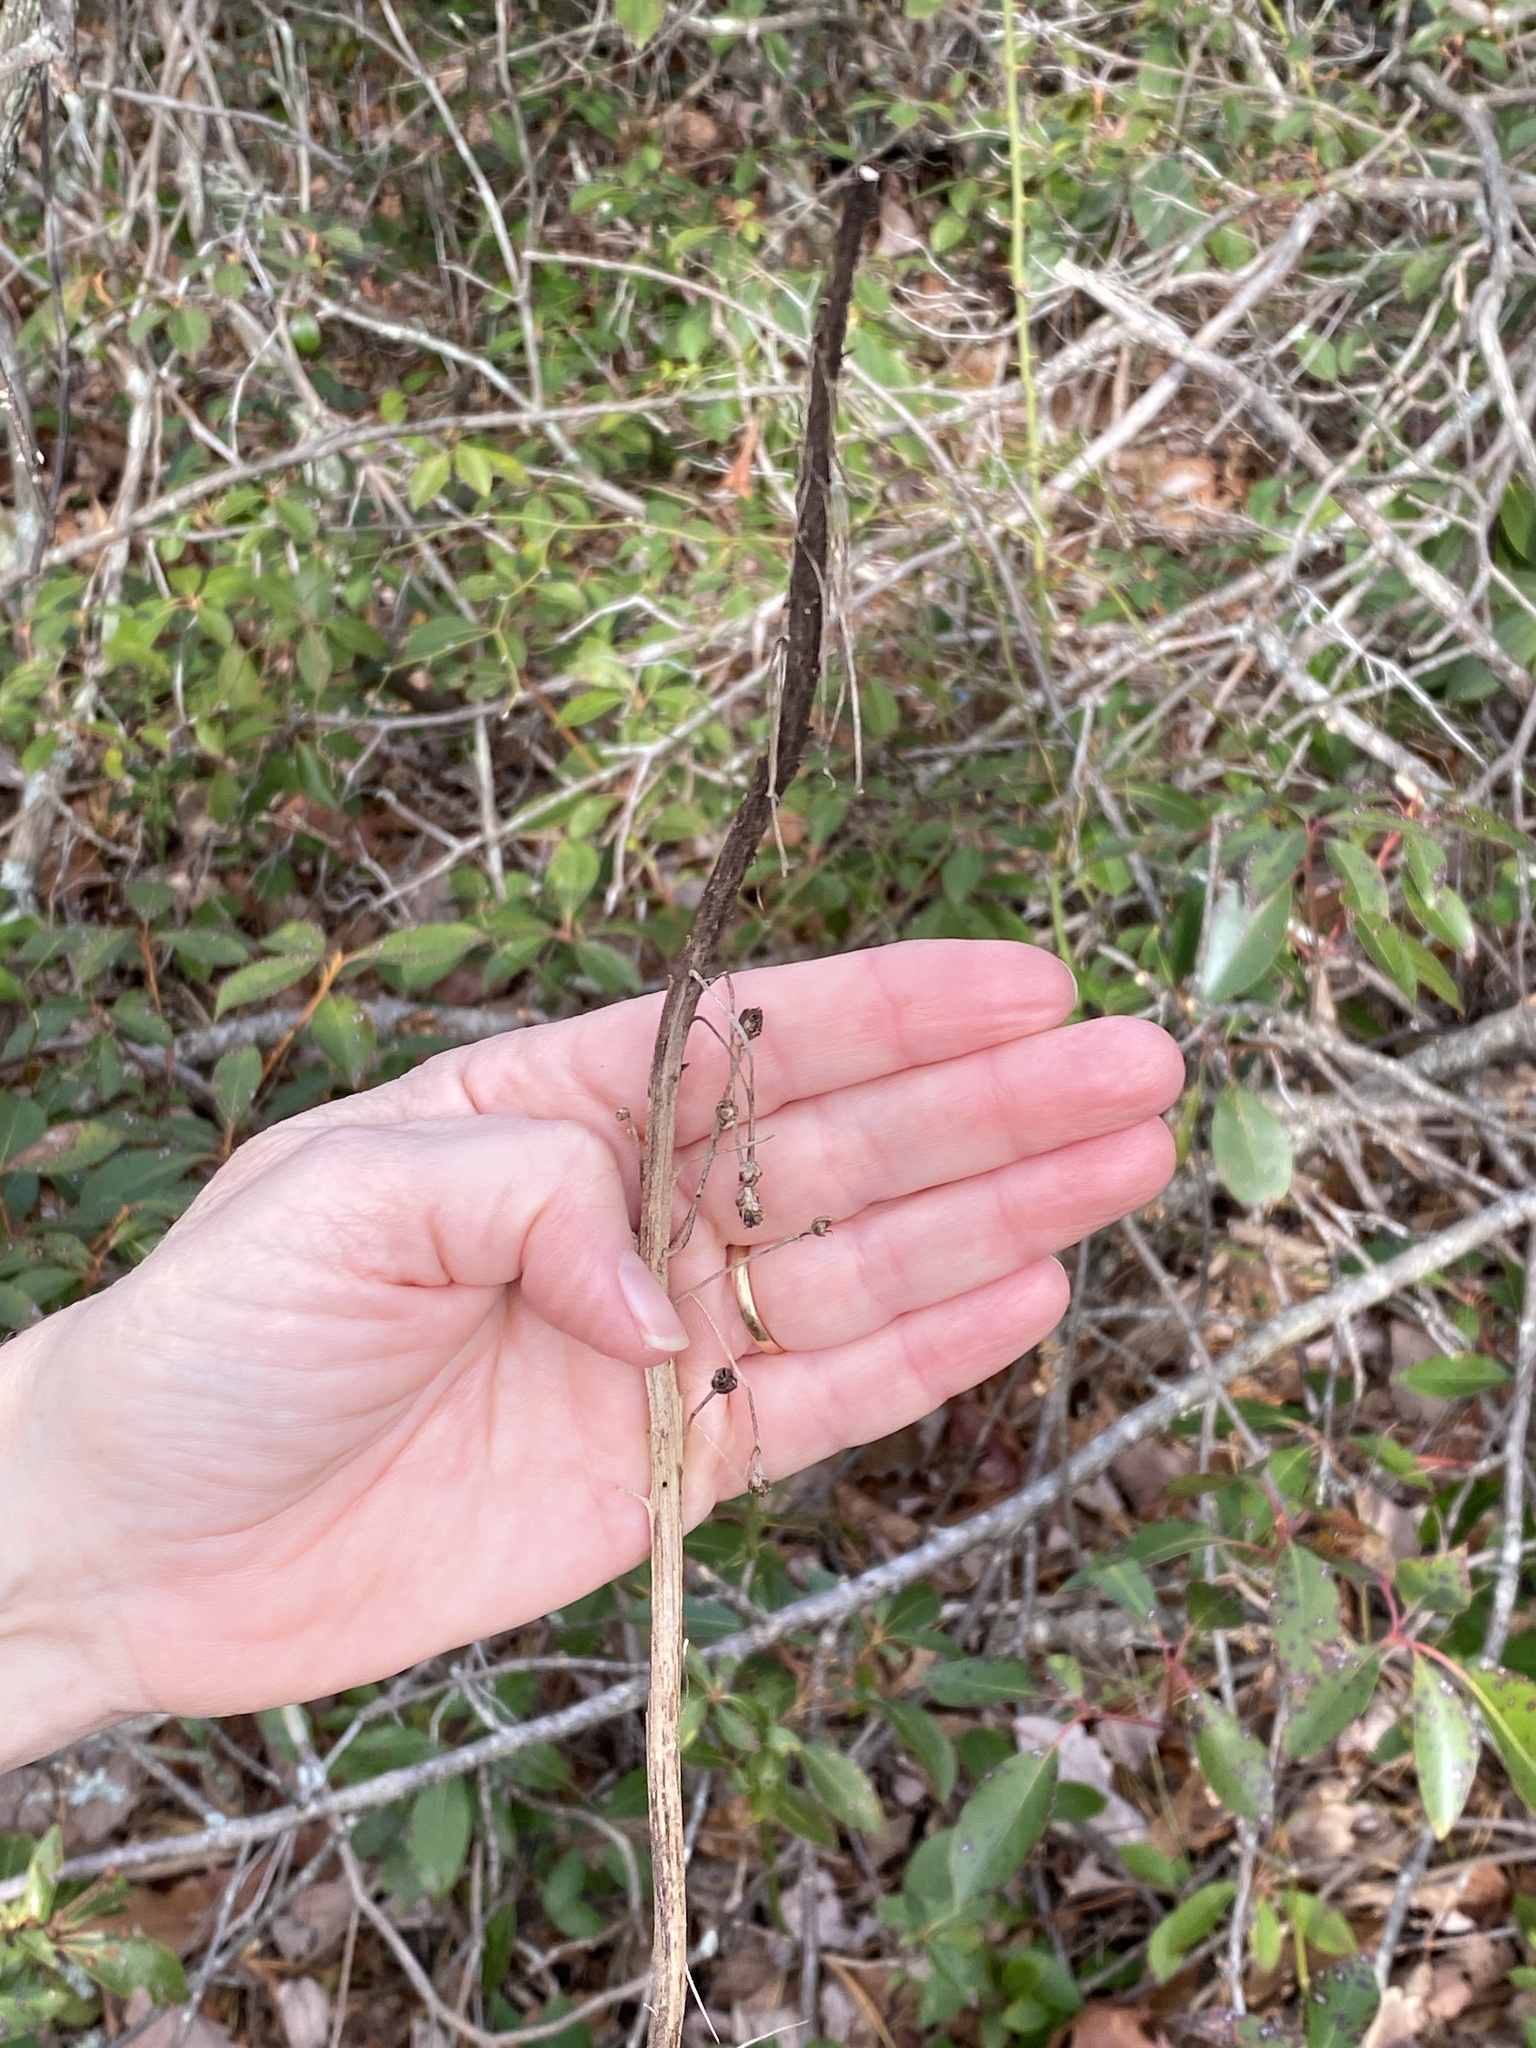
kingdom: Plantae
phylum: Tracheophyta
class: Liliopsida
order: Liliales
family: Melanthiaceae
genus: Xerophyllum
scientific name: Xerophyllum asphodeloides
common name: Mountain-asphodel
